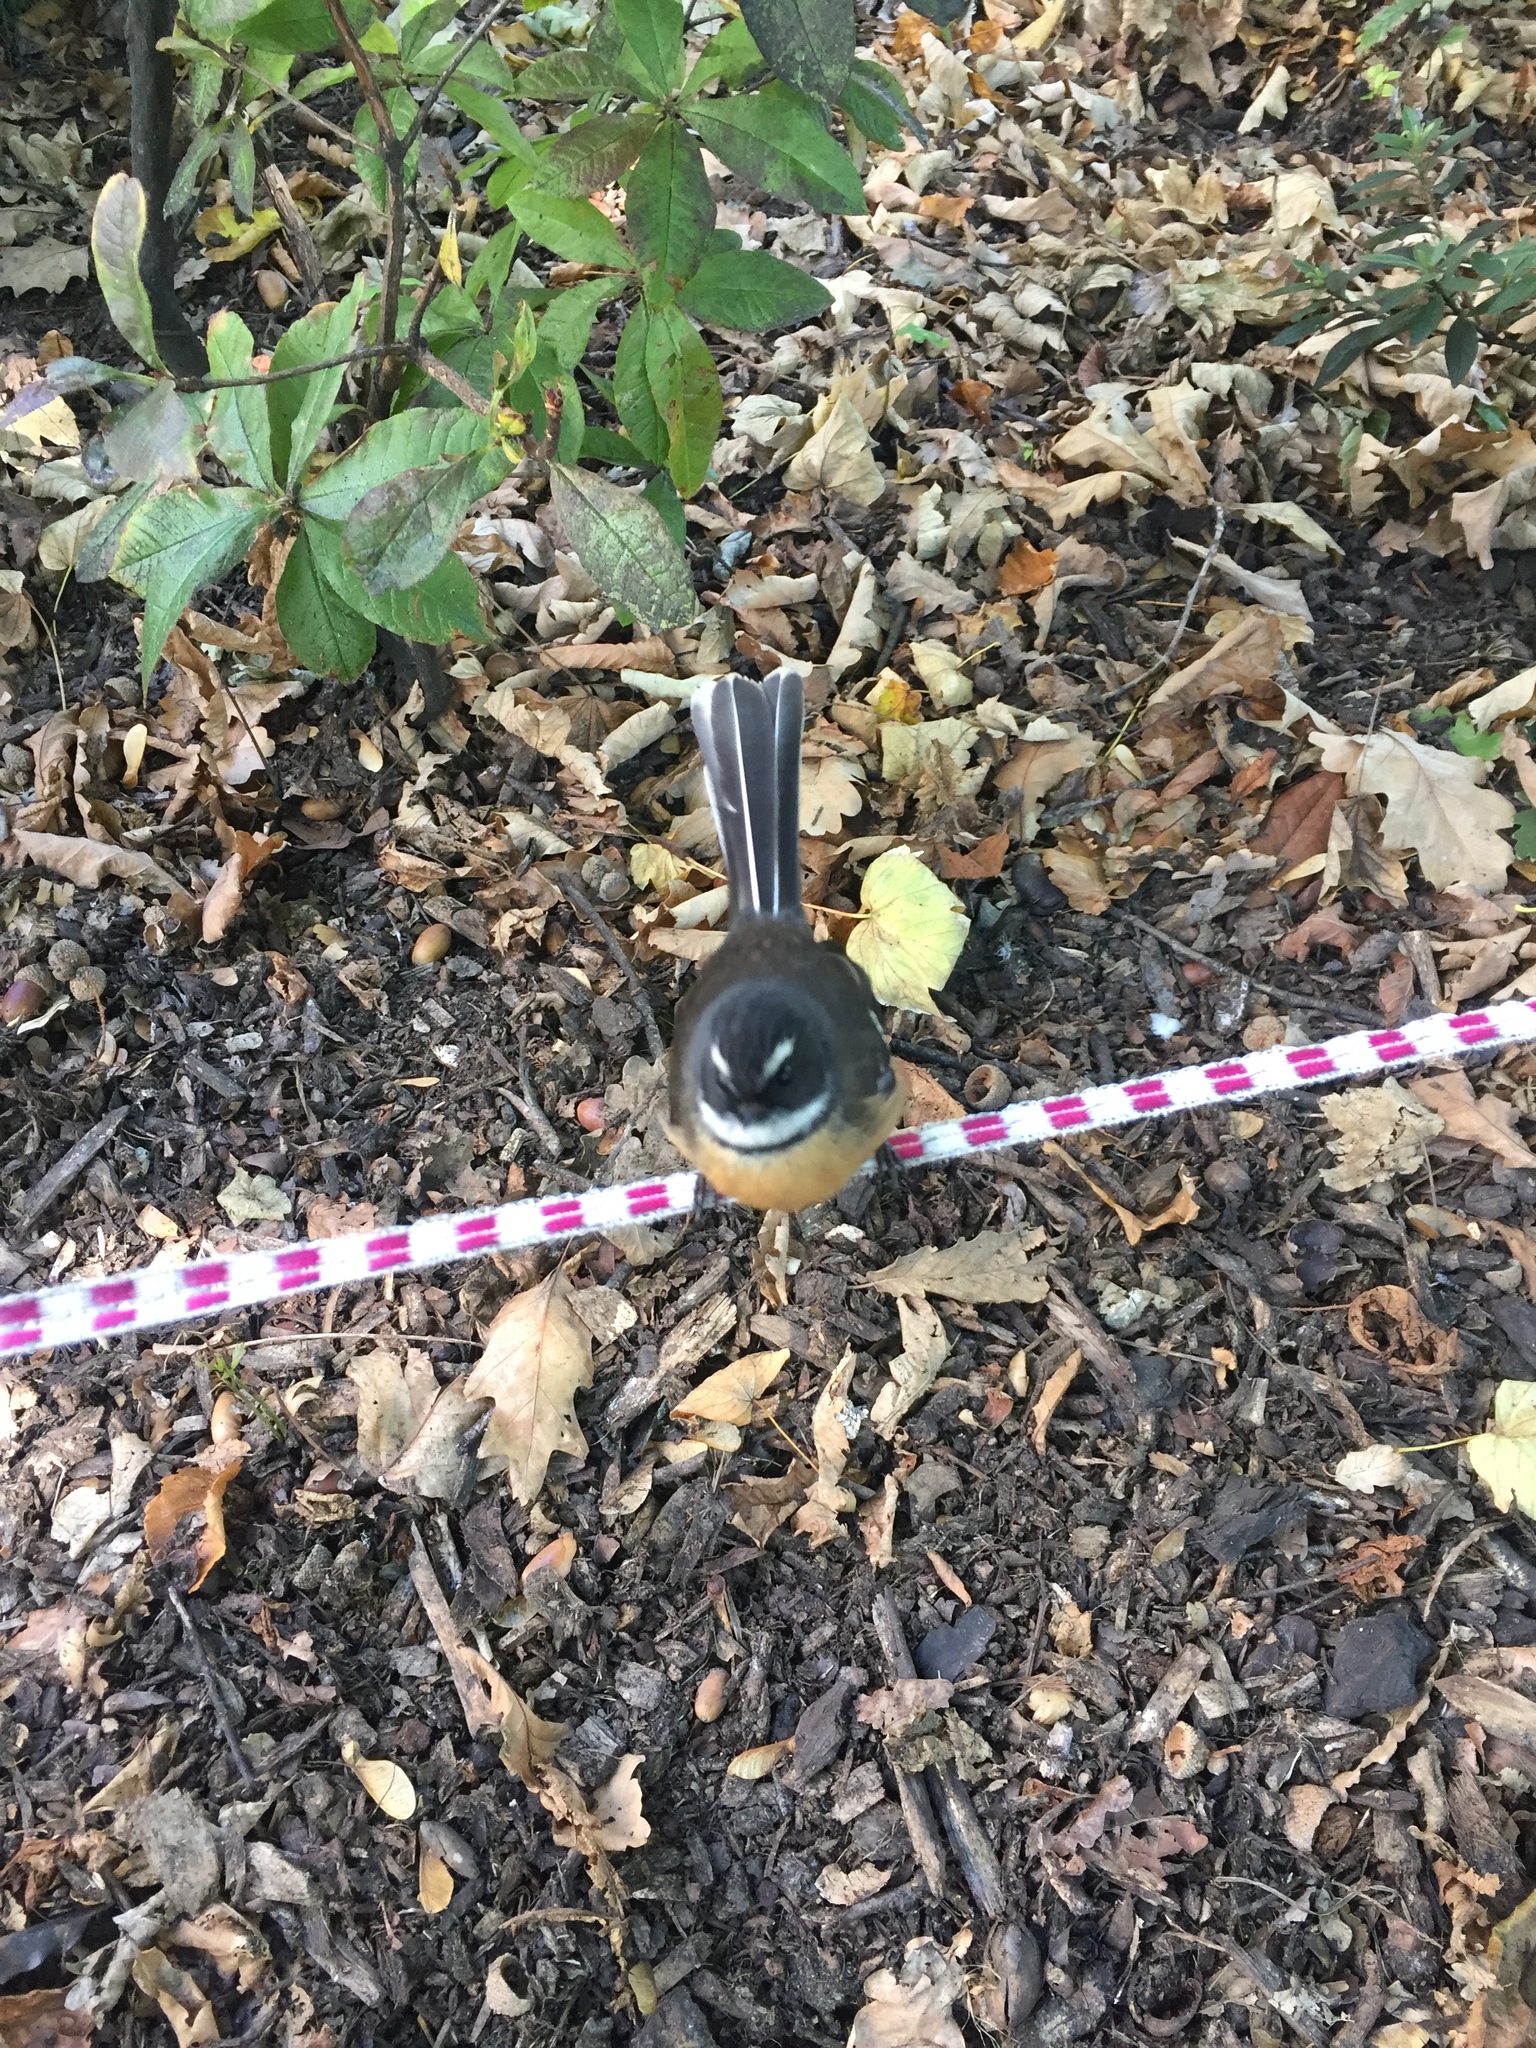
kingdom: Animalia
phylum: Chordata
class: Aves
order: Passeriformes
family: Rhipiduridae
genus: Rhipidura
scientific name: Rhipidura fuliginosa
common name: New zealand fantail
